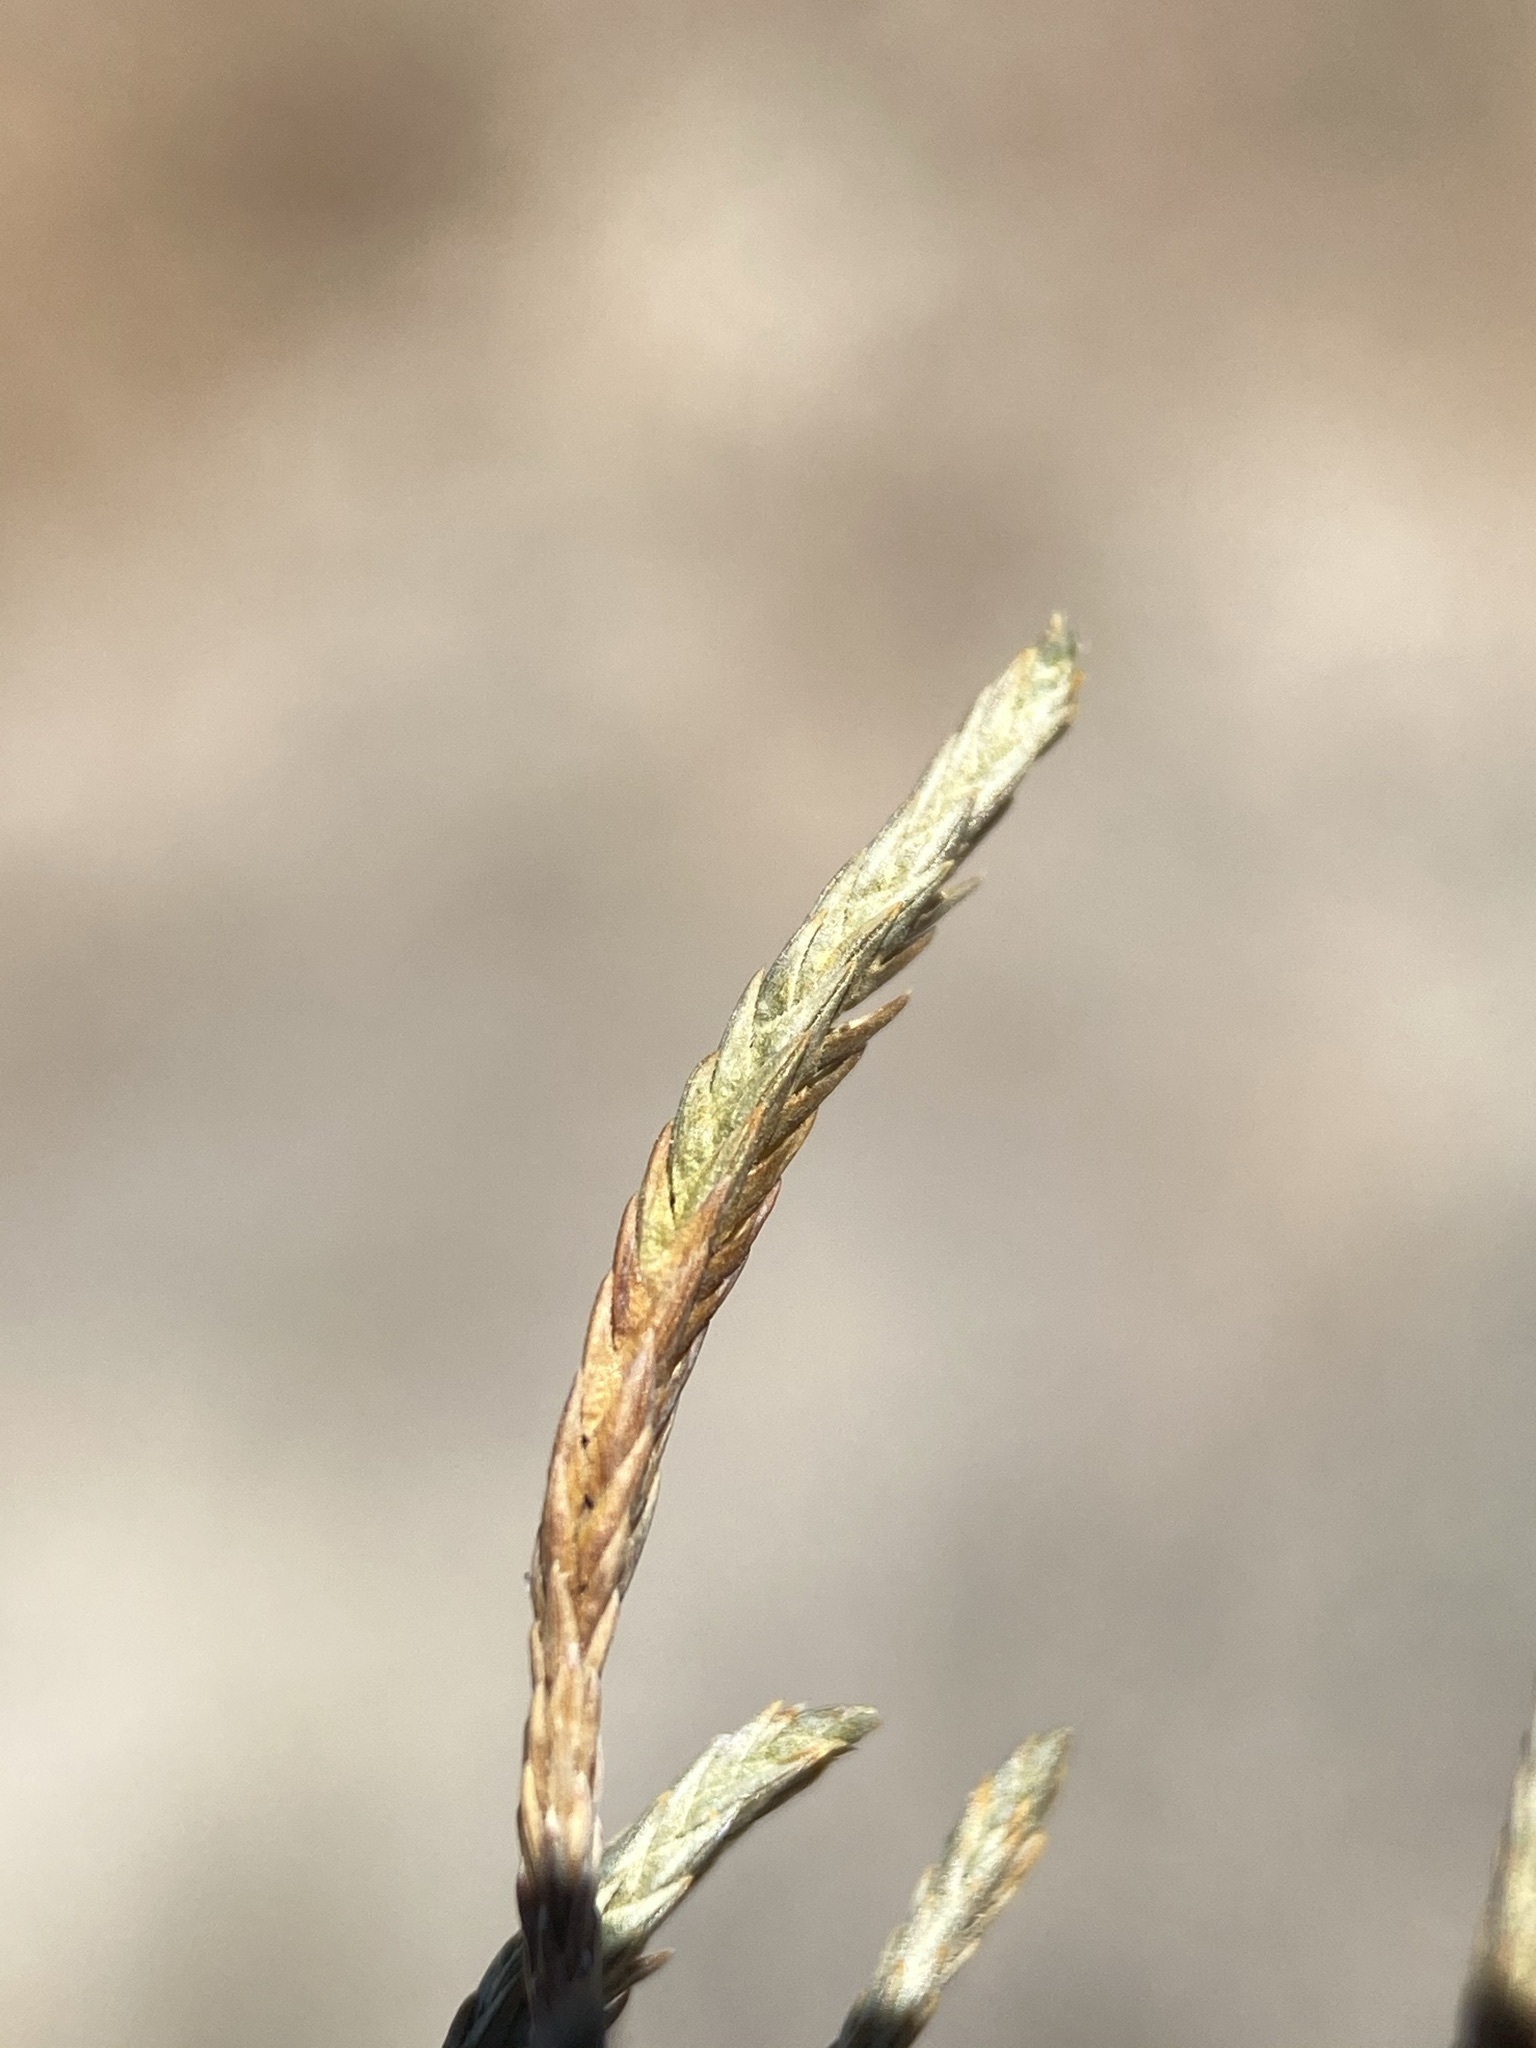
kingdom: Plantae
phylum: Tracheophyta
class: Lycopodiopsida
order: Selaginellales
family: Selaginellaceae
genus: Selaginella
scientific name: Selaginella viridissima
